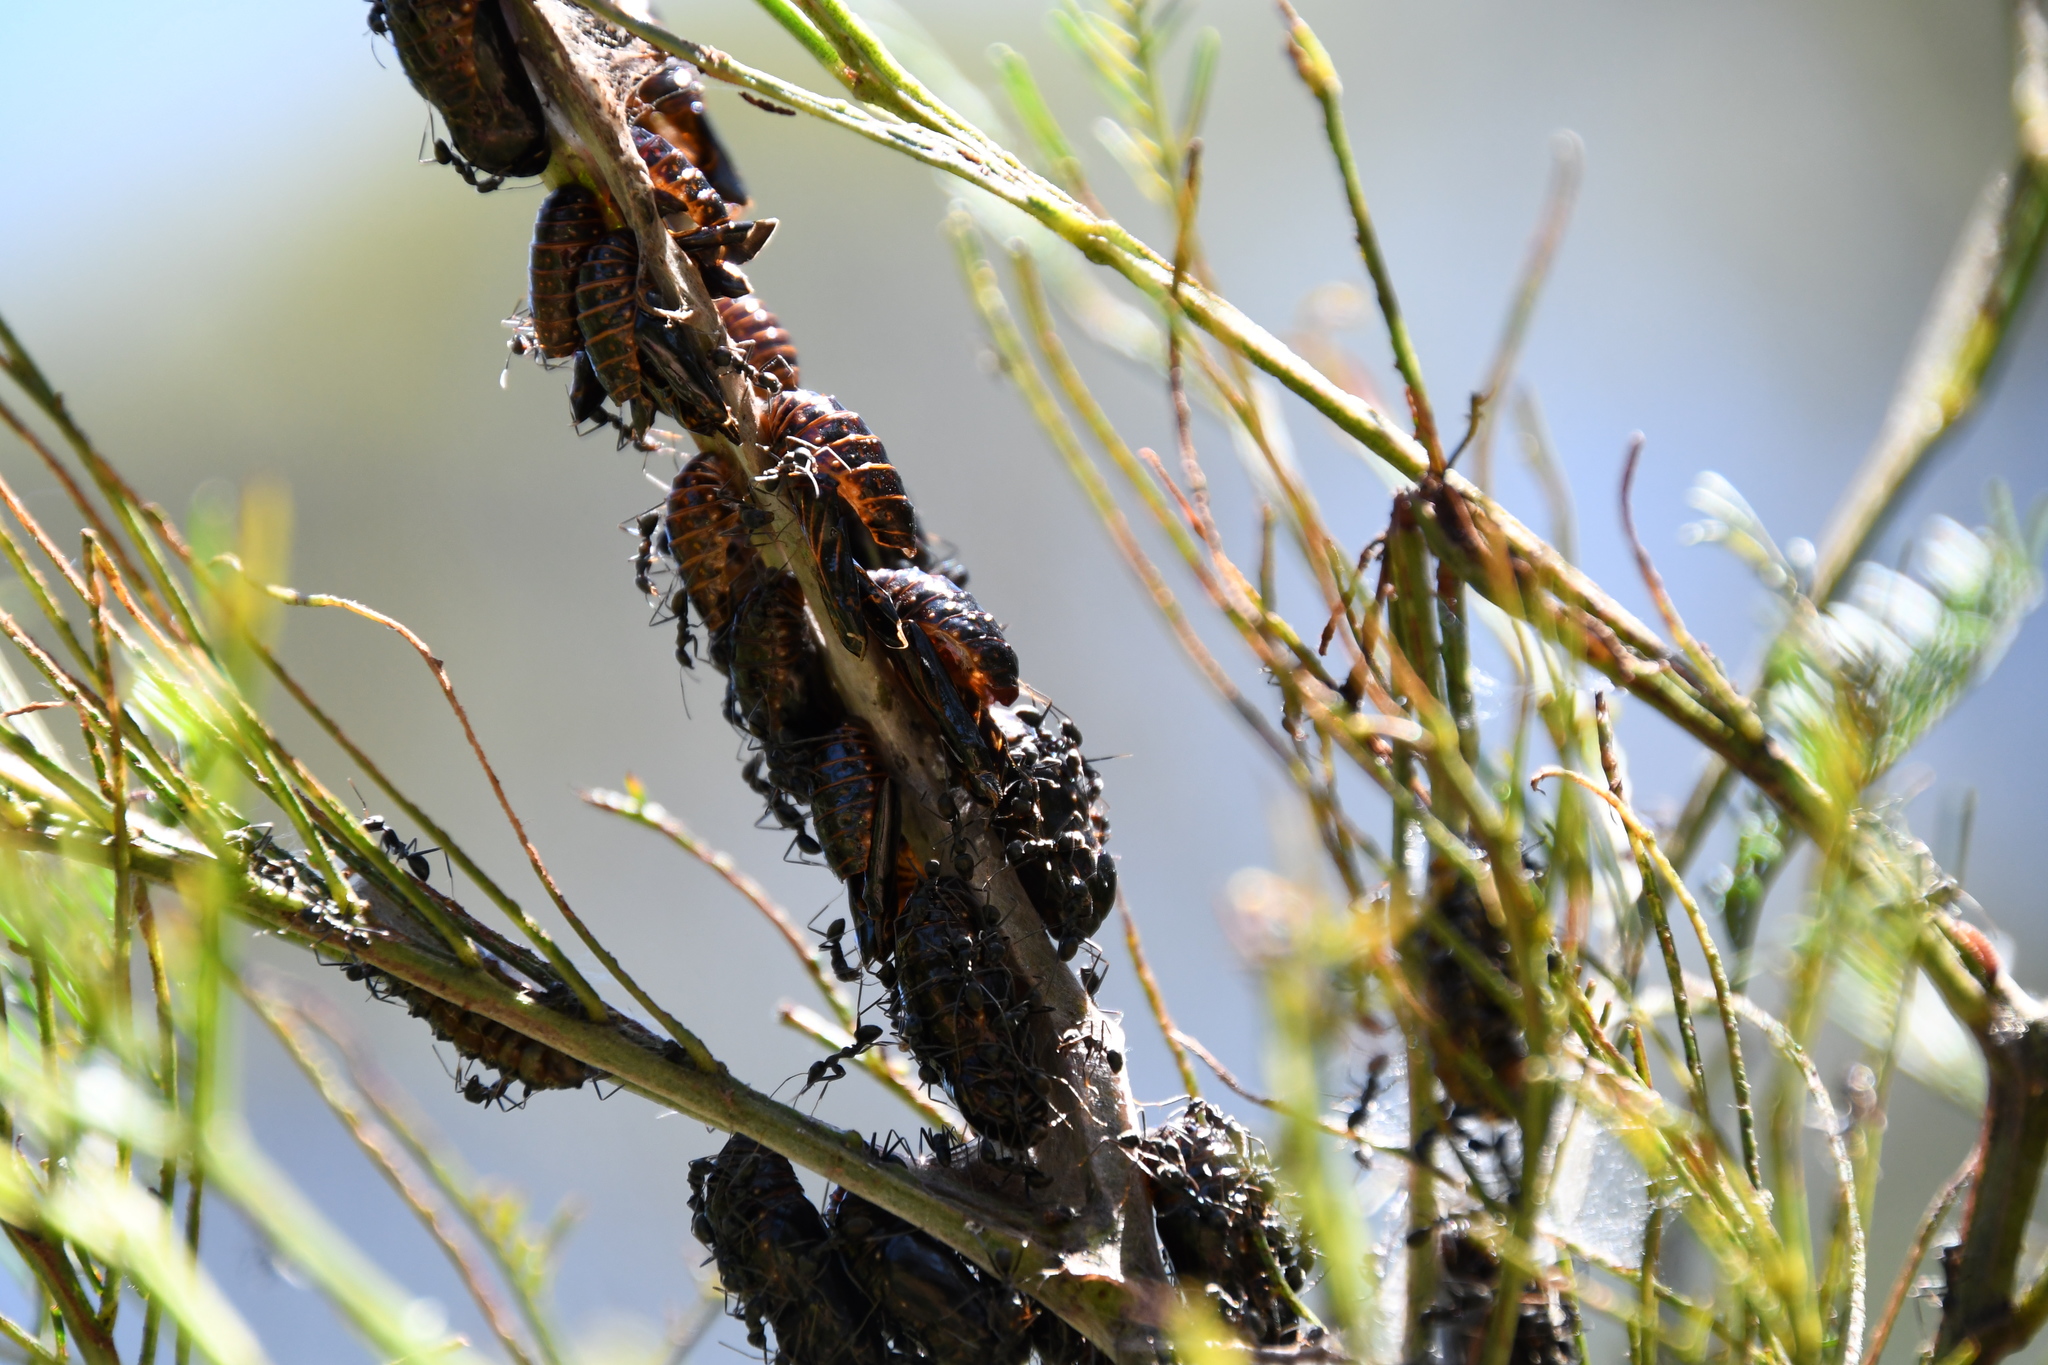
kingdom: Animalia
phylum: Arthropoda
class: Insecta
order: Lepidoptera
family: Lycaenidae
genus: Jalmenus
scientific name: Jalmenus evagoras
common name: Common imperial blue
